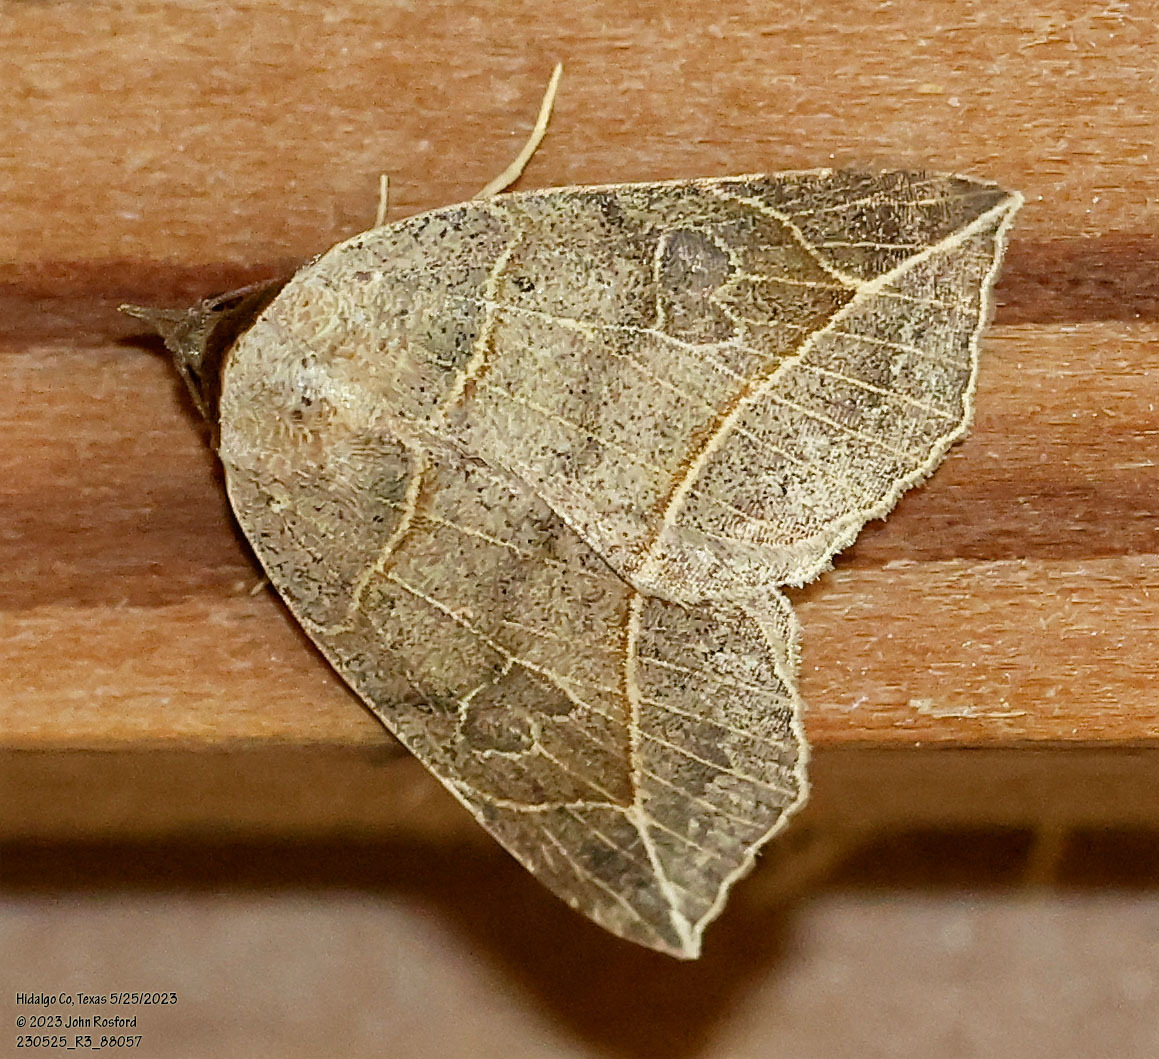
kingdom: Animalia
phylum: Arthropoda
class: Insecta
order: Lepidoptera
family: Erebidae
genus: Isogona
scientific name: Isogona tenuis
